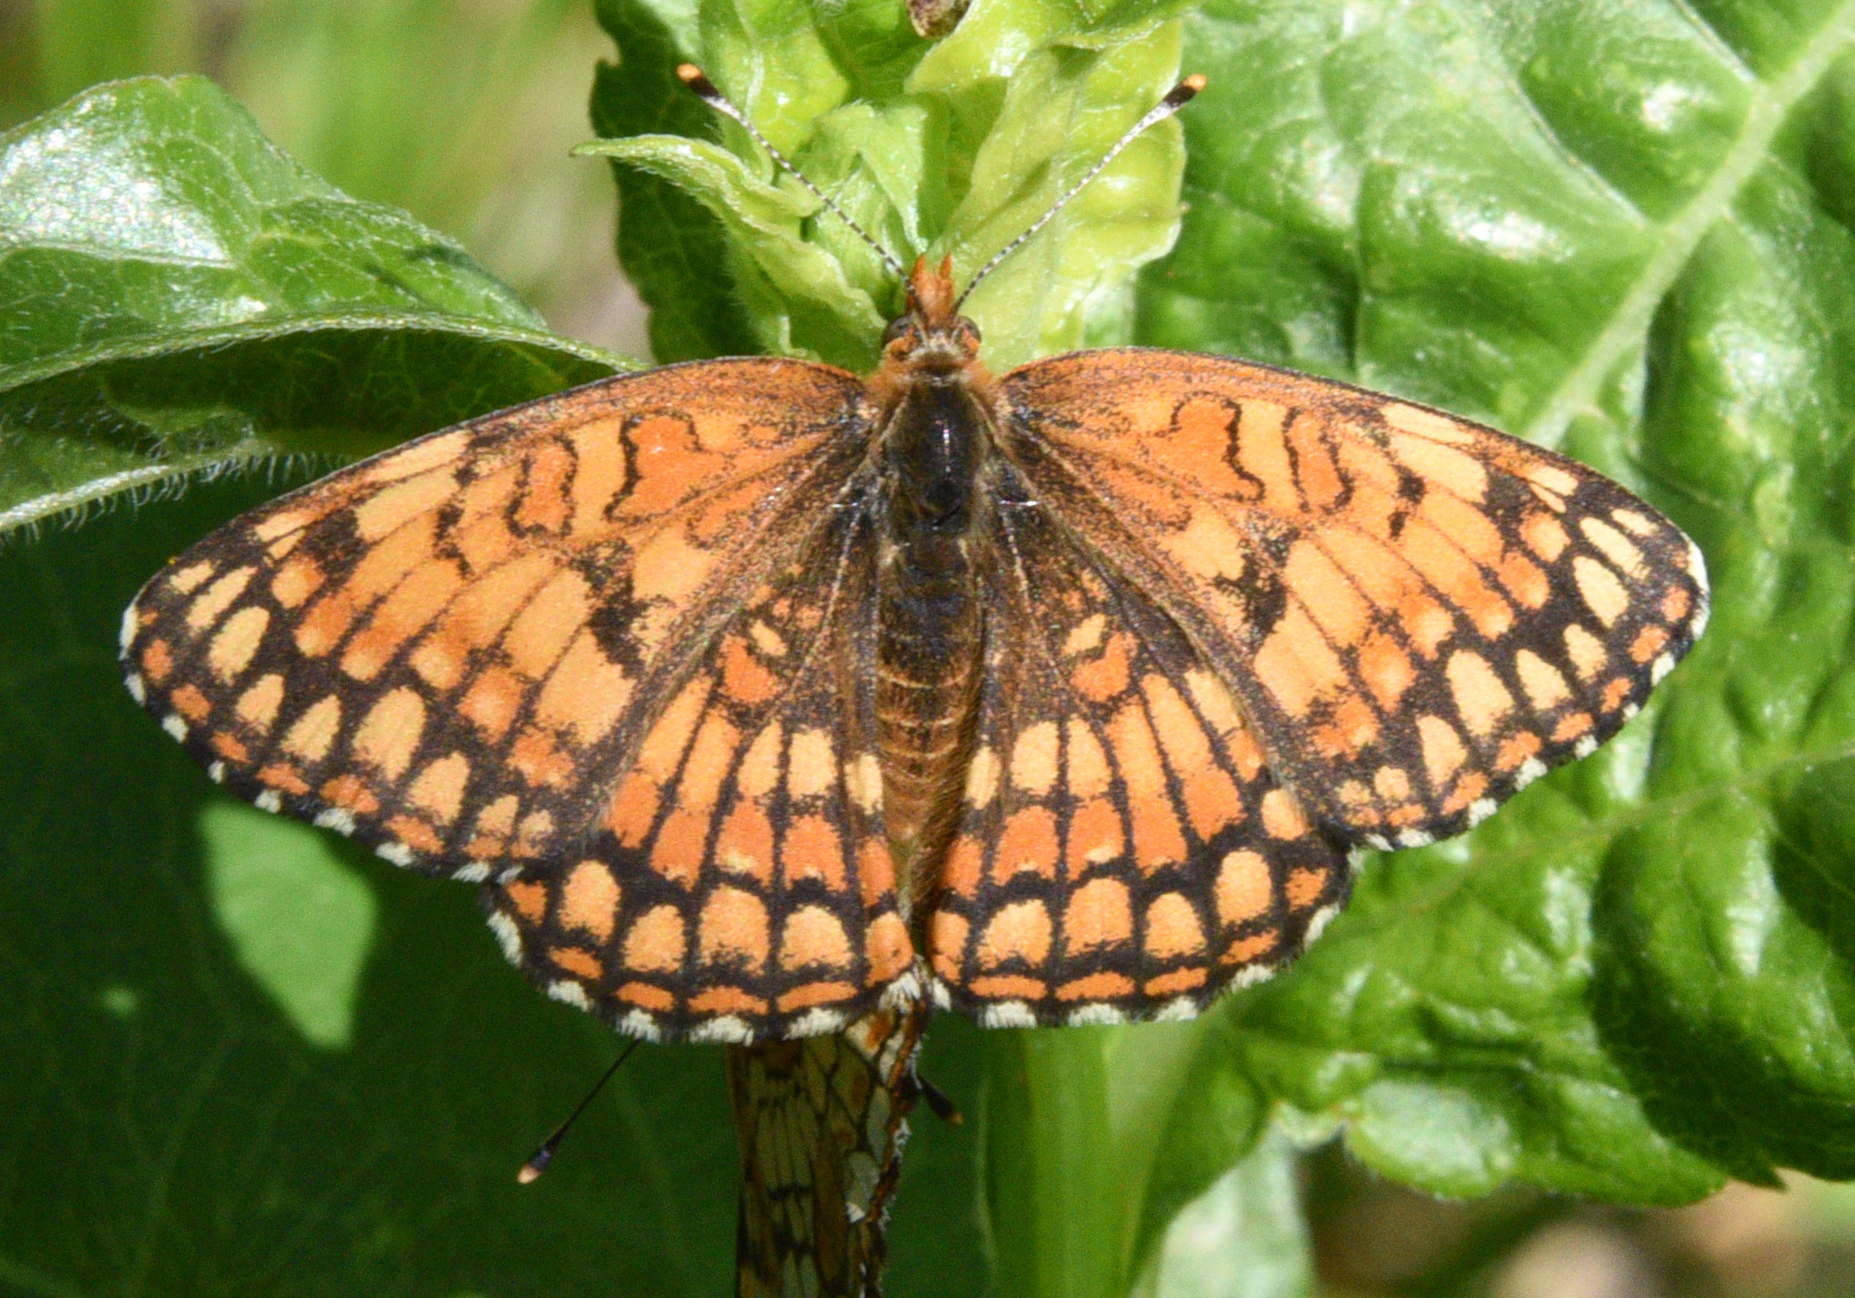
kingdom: Animalia
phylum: Arthropoda
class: Insecta
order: Lepidoptera
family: Nymphalidae
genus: Chlosyne
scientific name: Chlosyne acastus
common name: Sagebrush checkerspot
